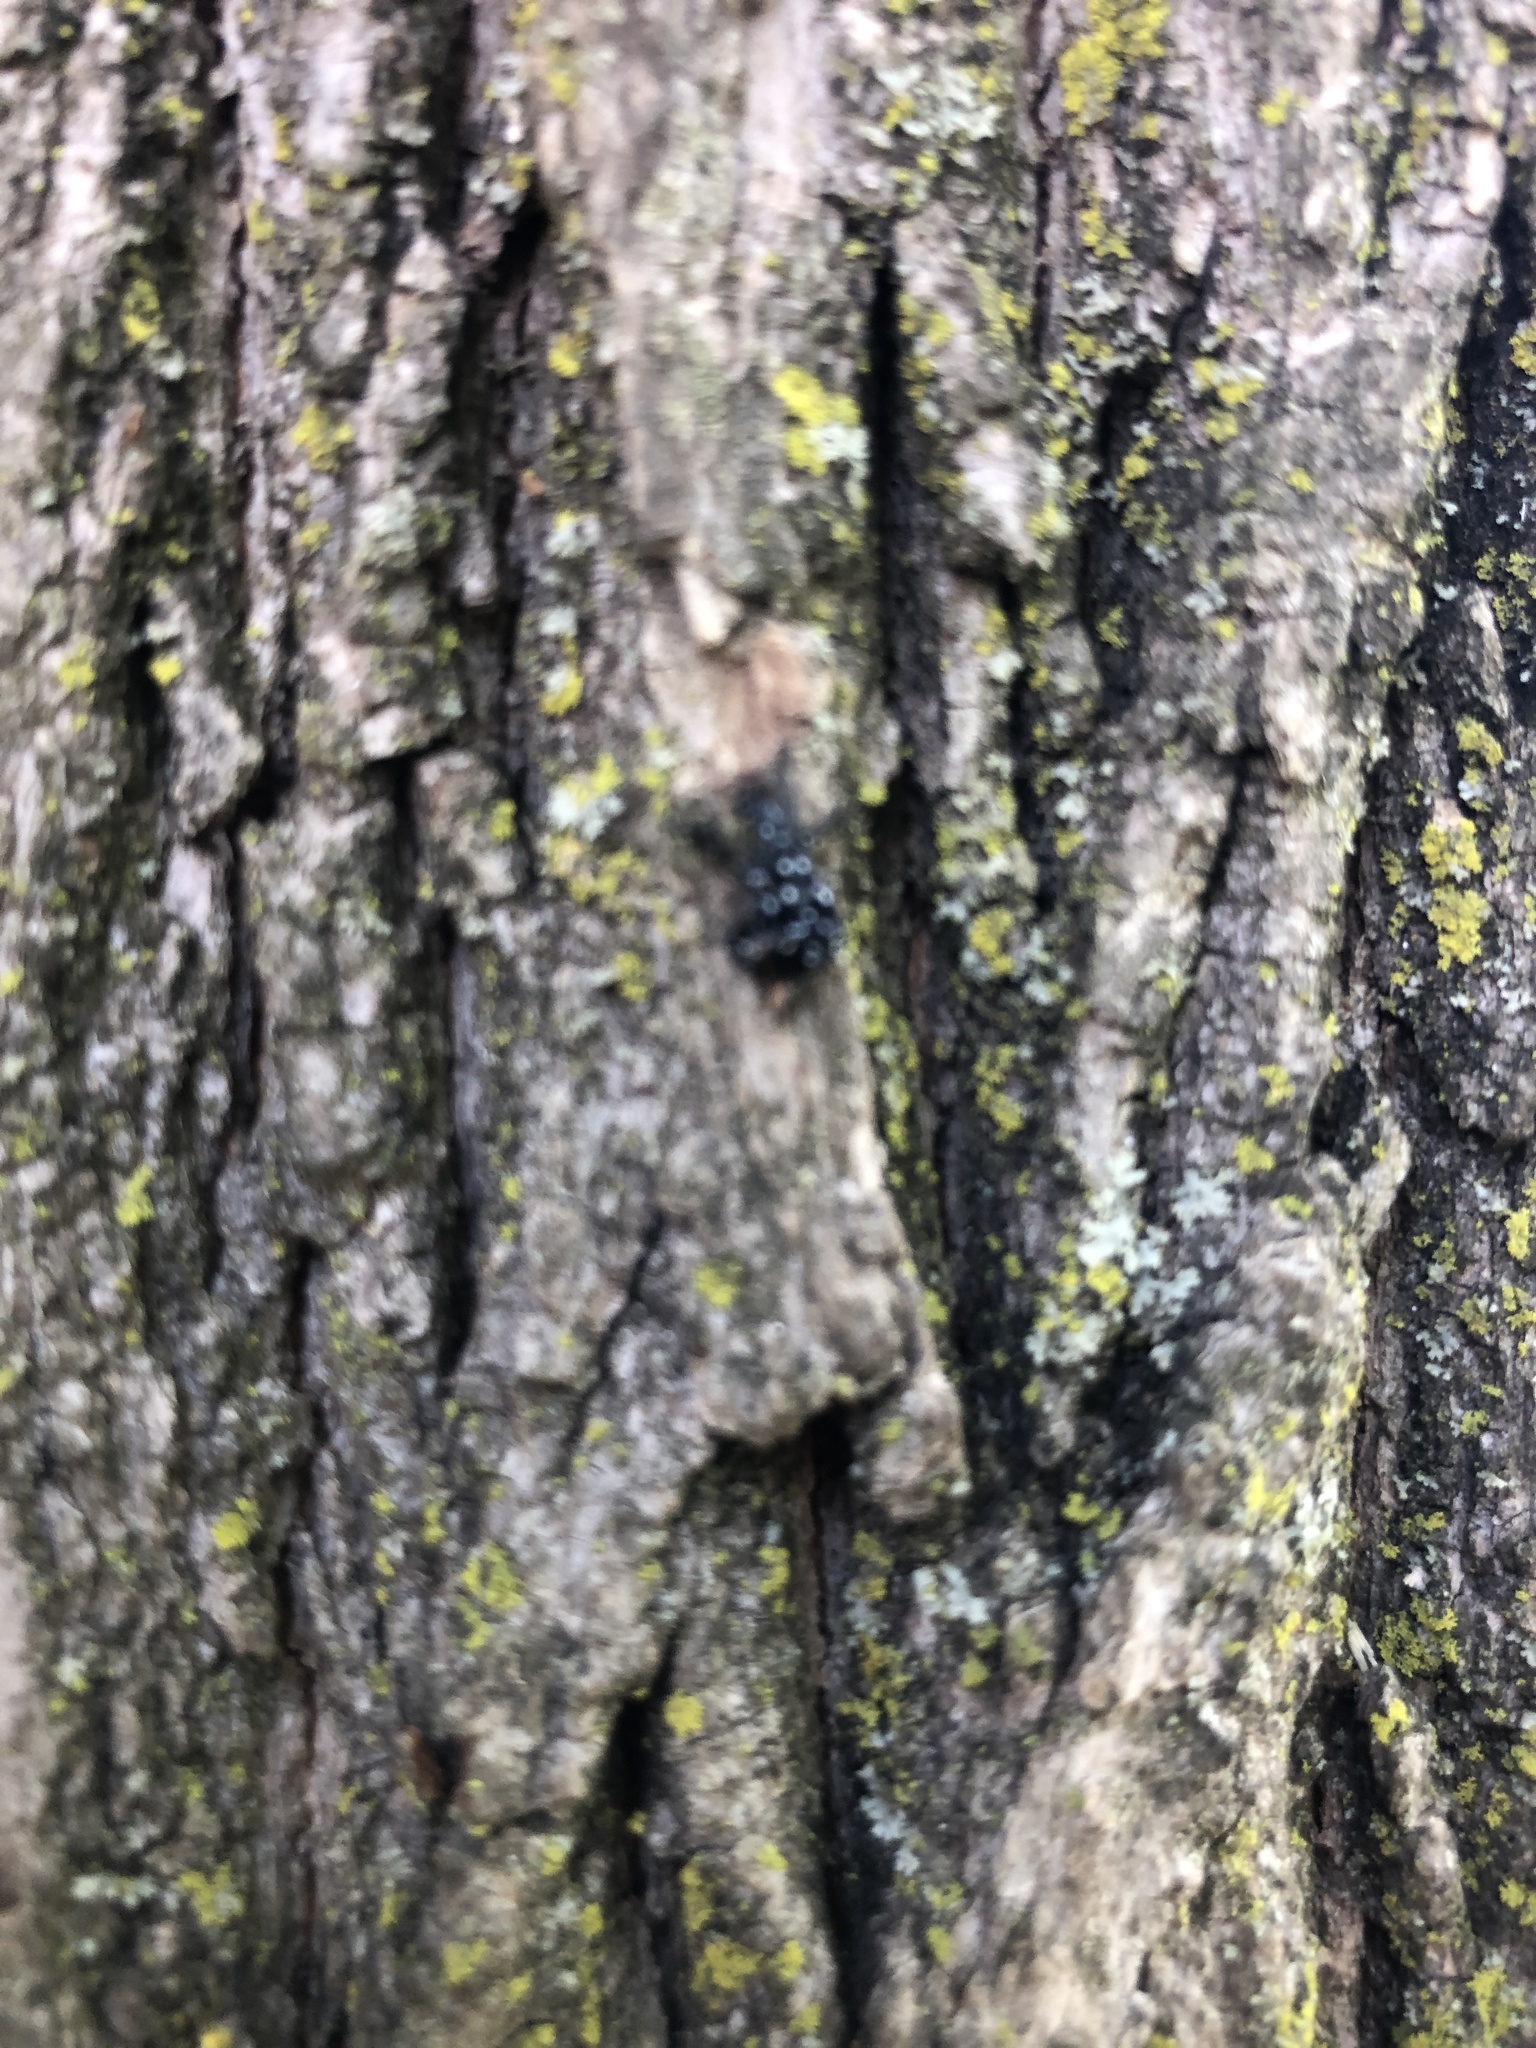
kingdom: Animalia
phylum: Arthropoda
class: Insecta
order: Hemiptera
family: Fulgoridae
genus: Lycorma
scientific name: Lycorma delicatula
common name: Spotted lanternfly
